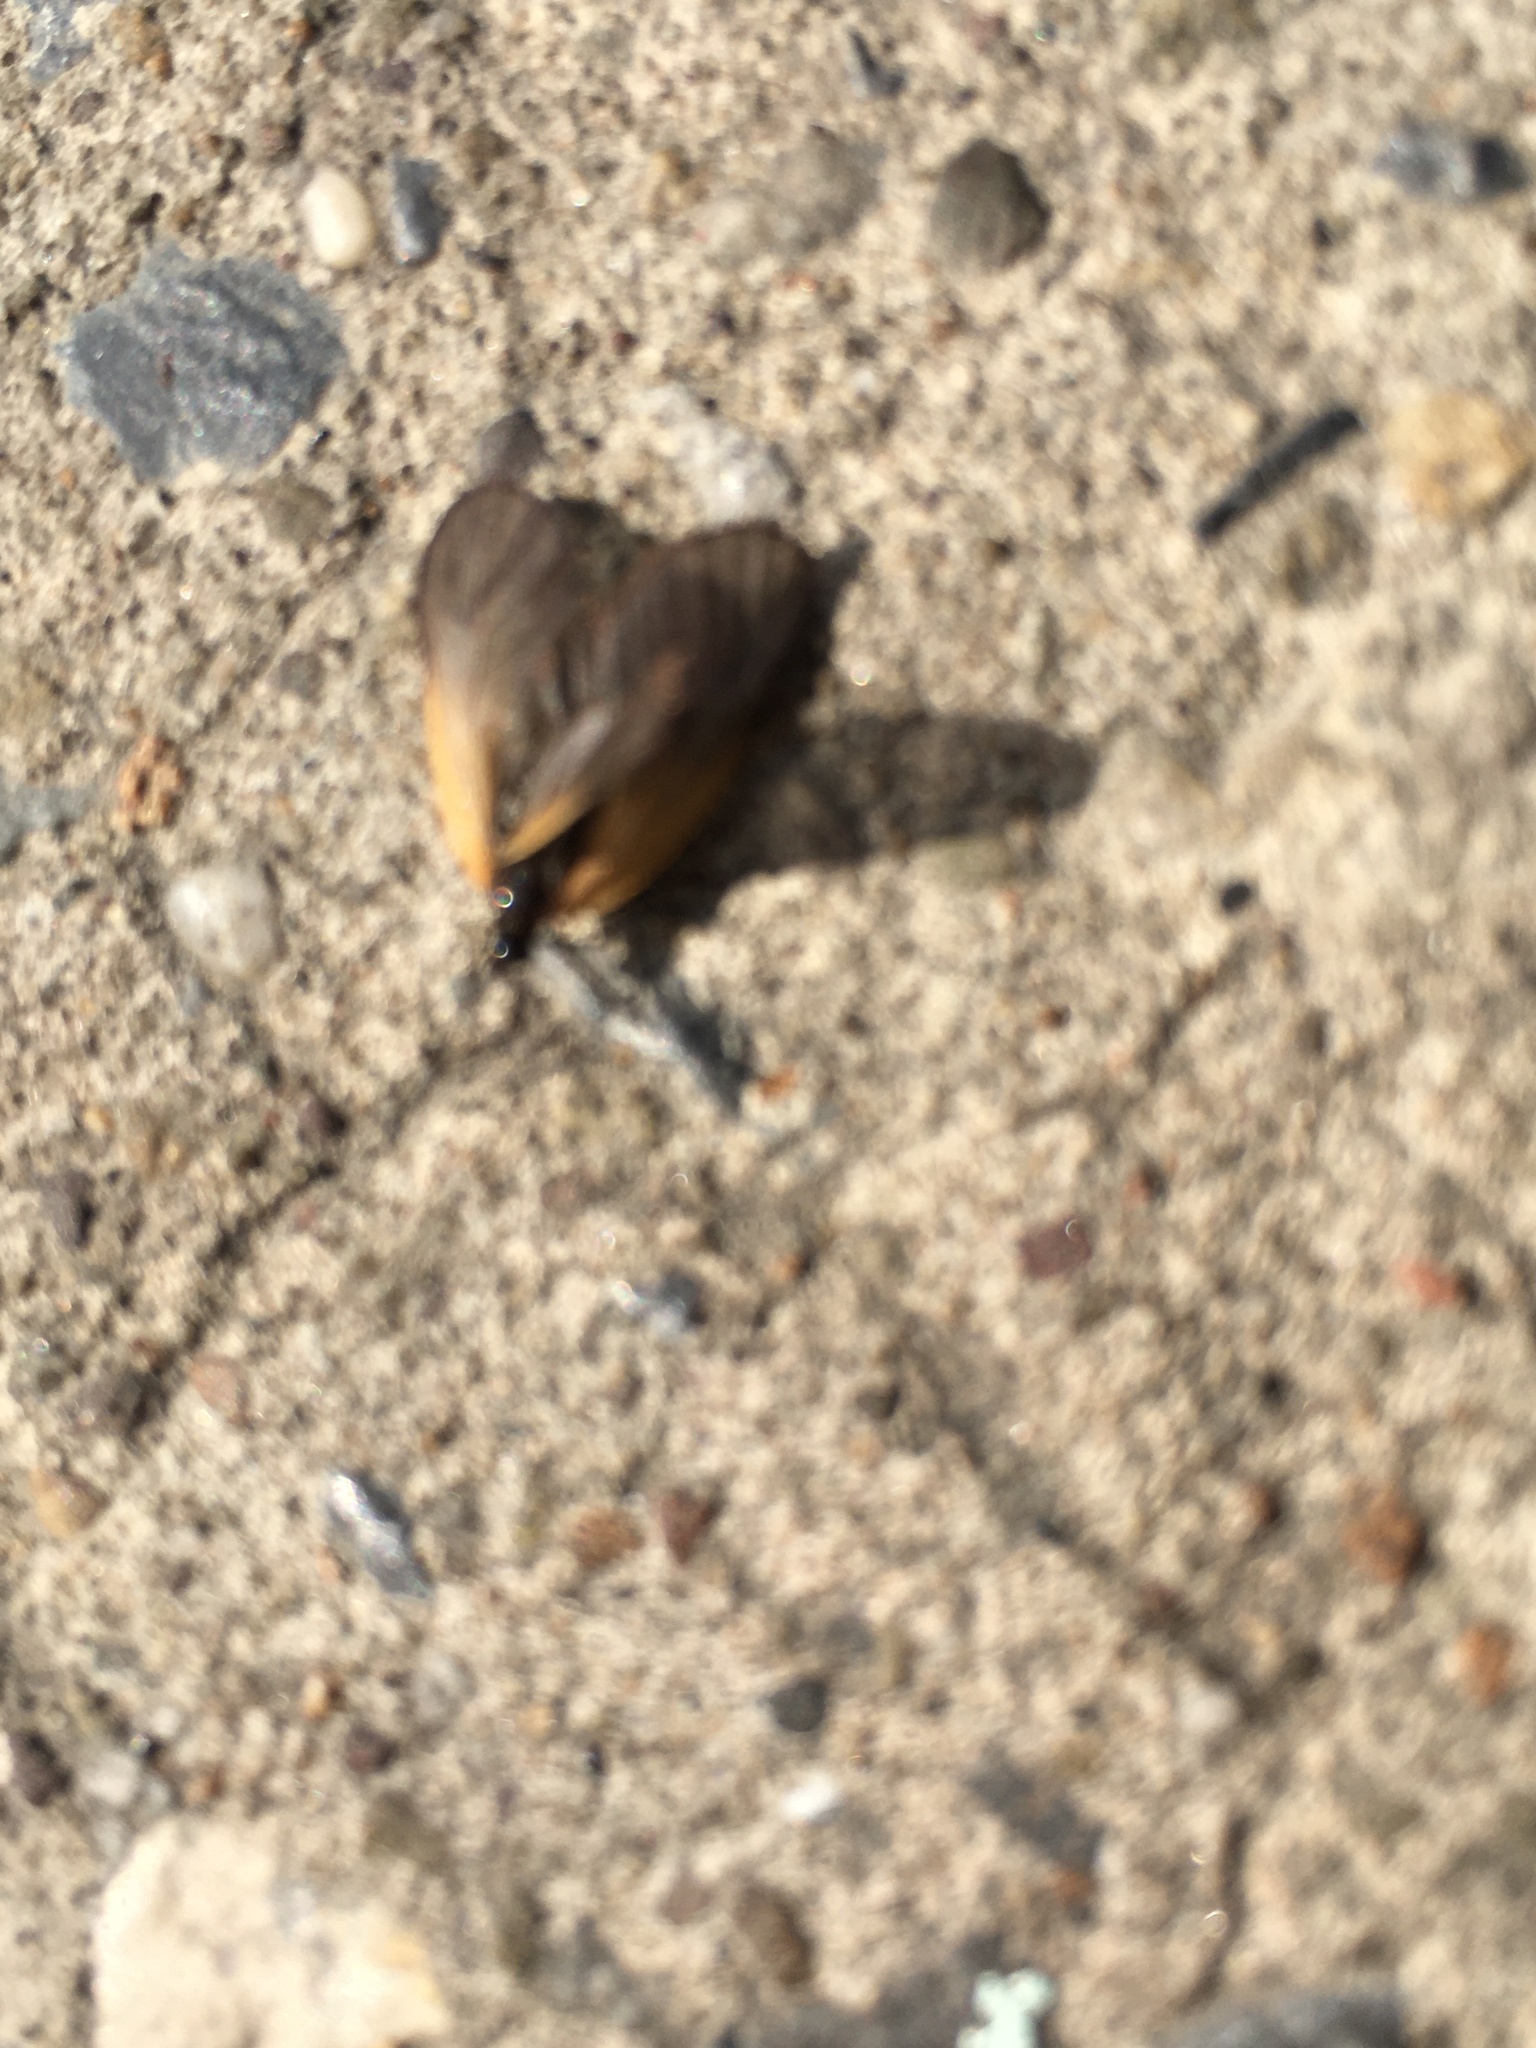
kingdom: Animalia
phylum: Arthropoda
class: Insecta
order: Lepidoptera
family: Zygaenidae
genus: Malthaca
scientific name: Malthaca dimidiata
